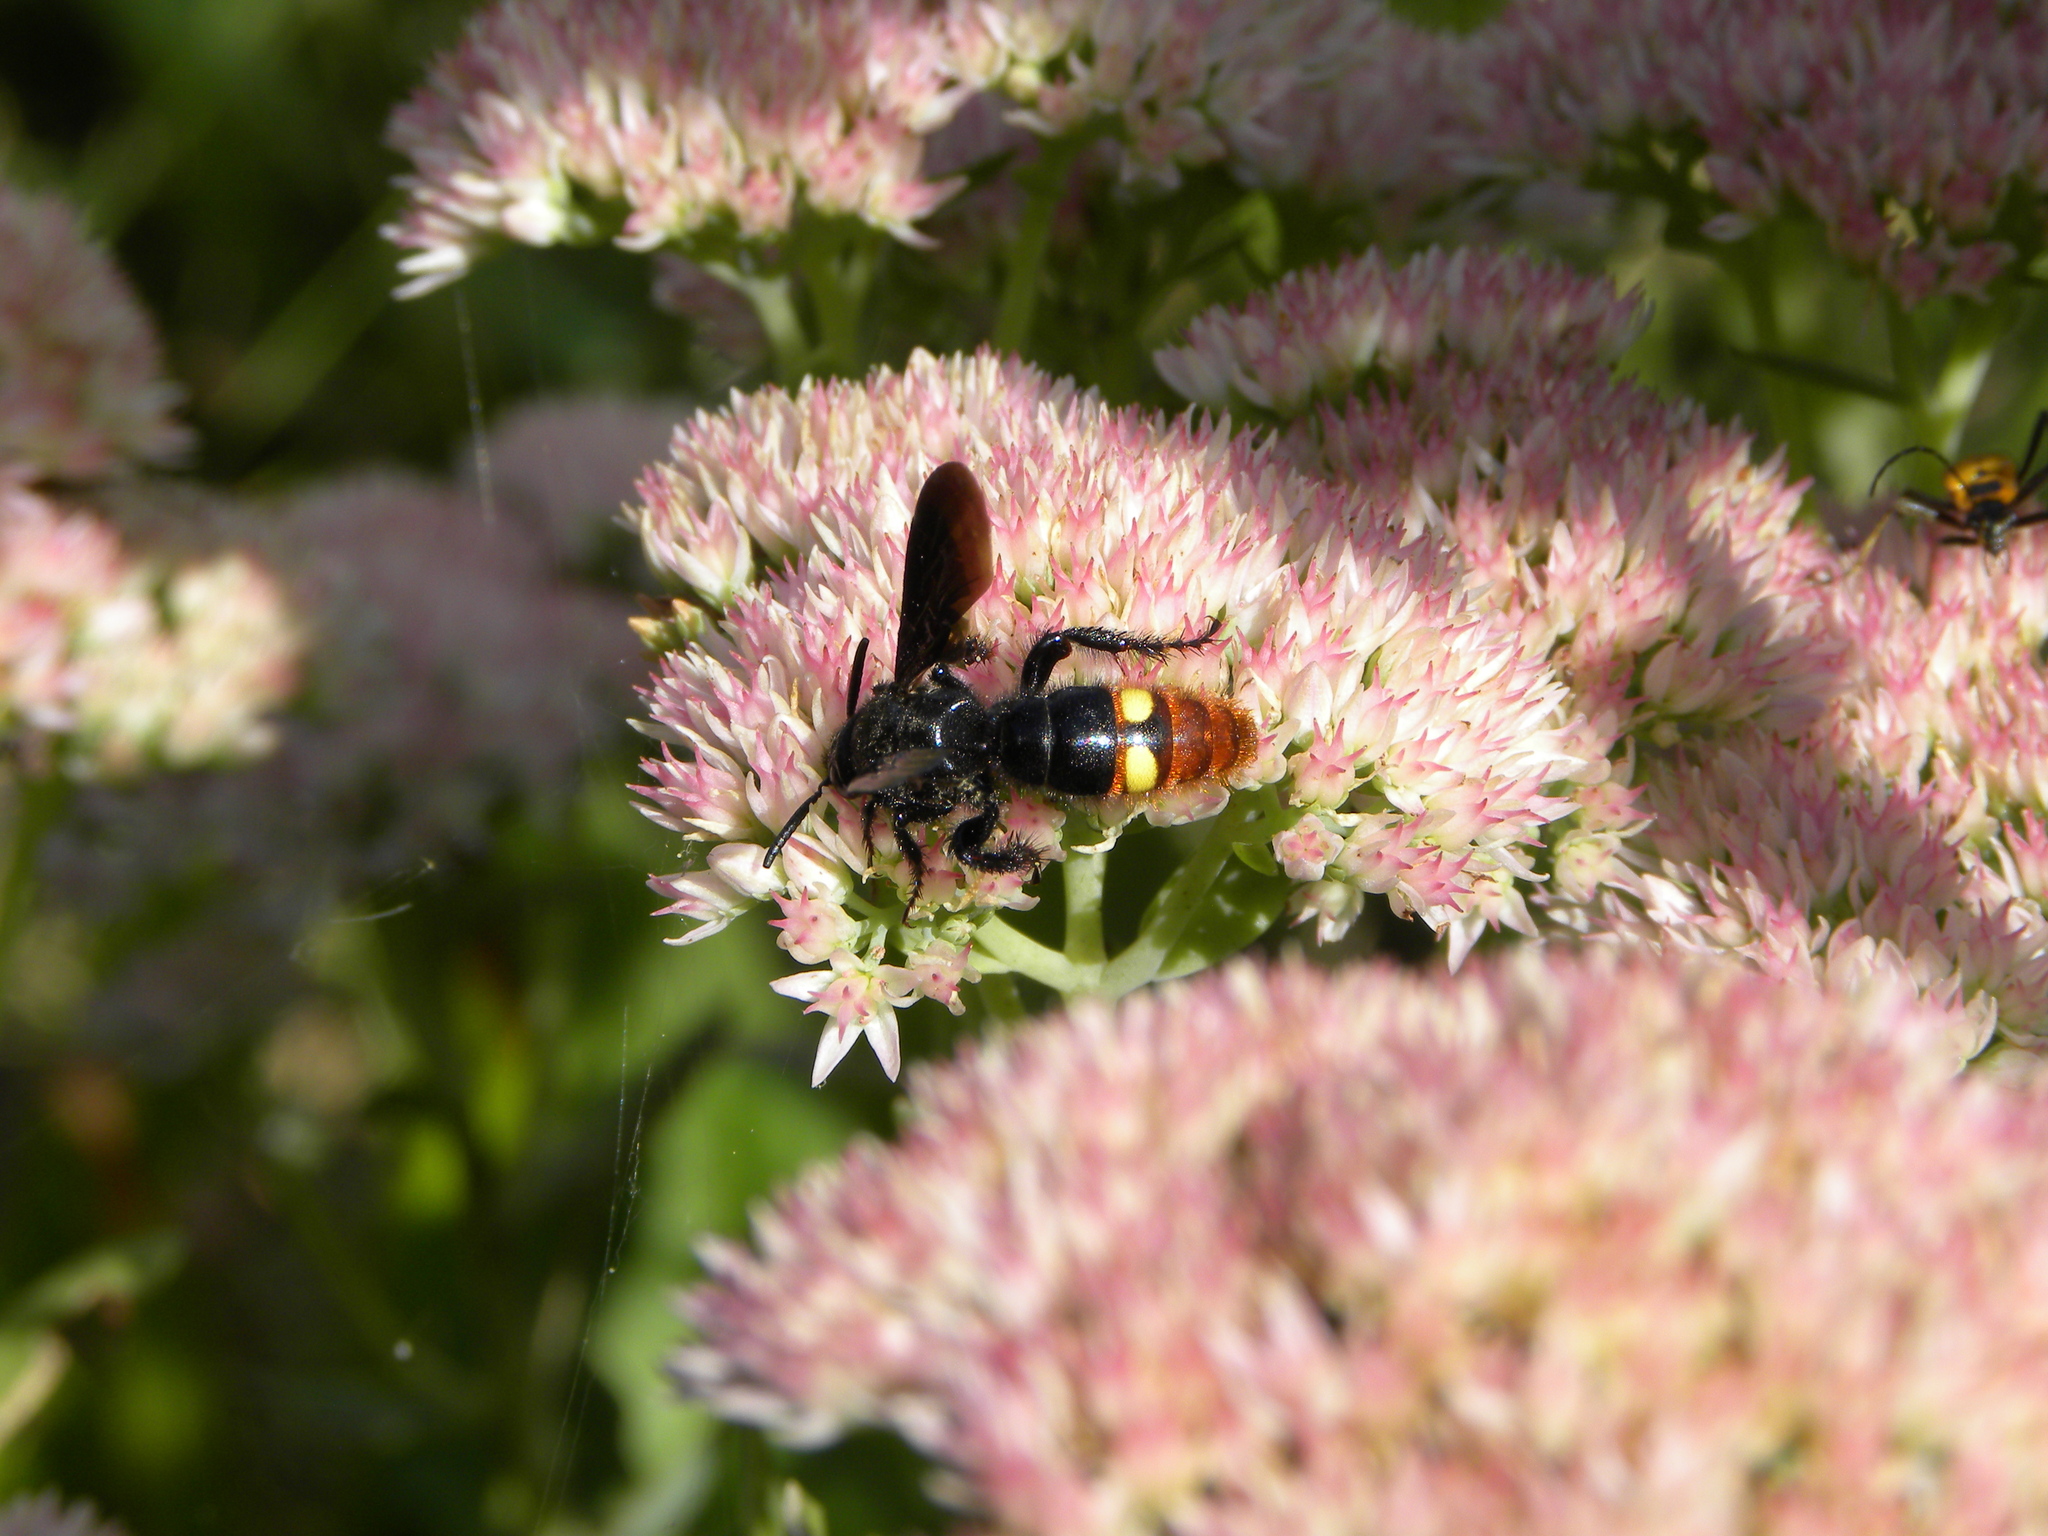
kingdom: Animalia
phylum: Arthropoda
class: Insecta
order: Hymenoptera
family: Scoliidae
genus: Scolia
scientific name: Scolia dubia
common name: Blue-winged scoliid wasp
